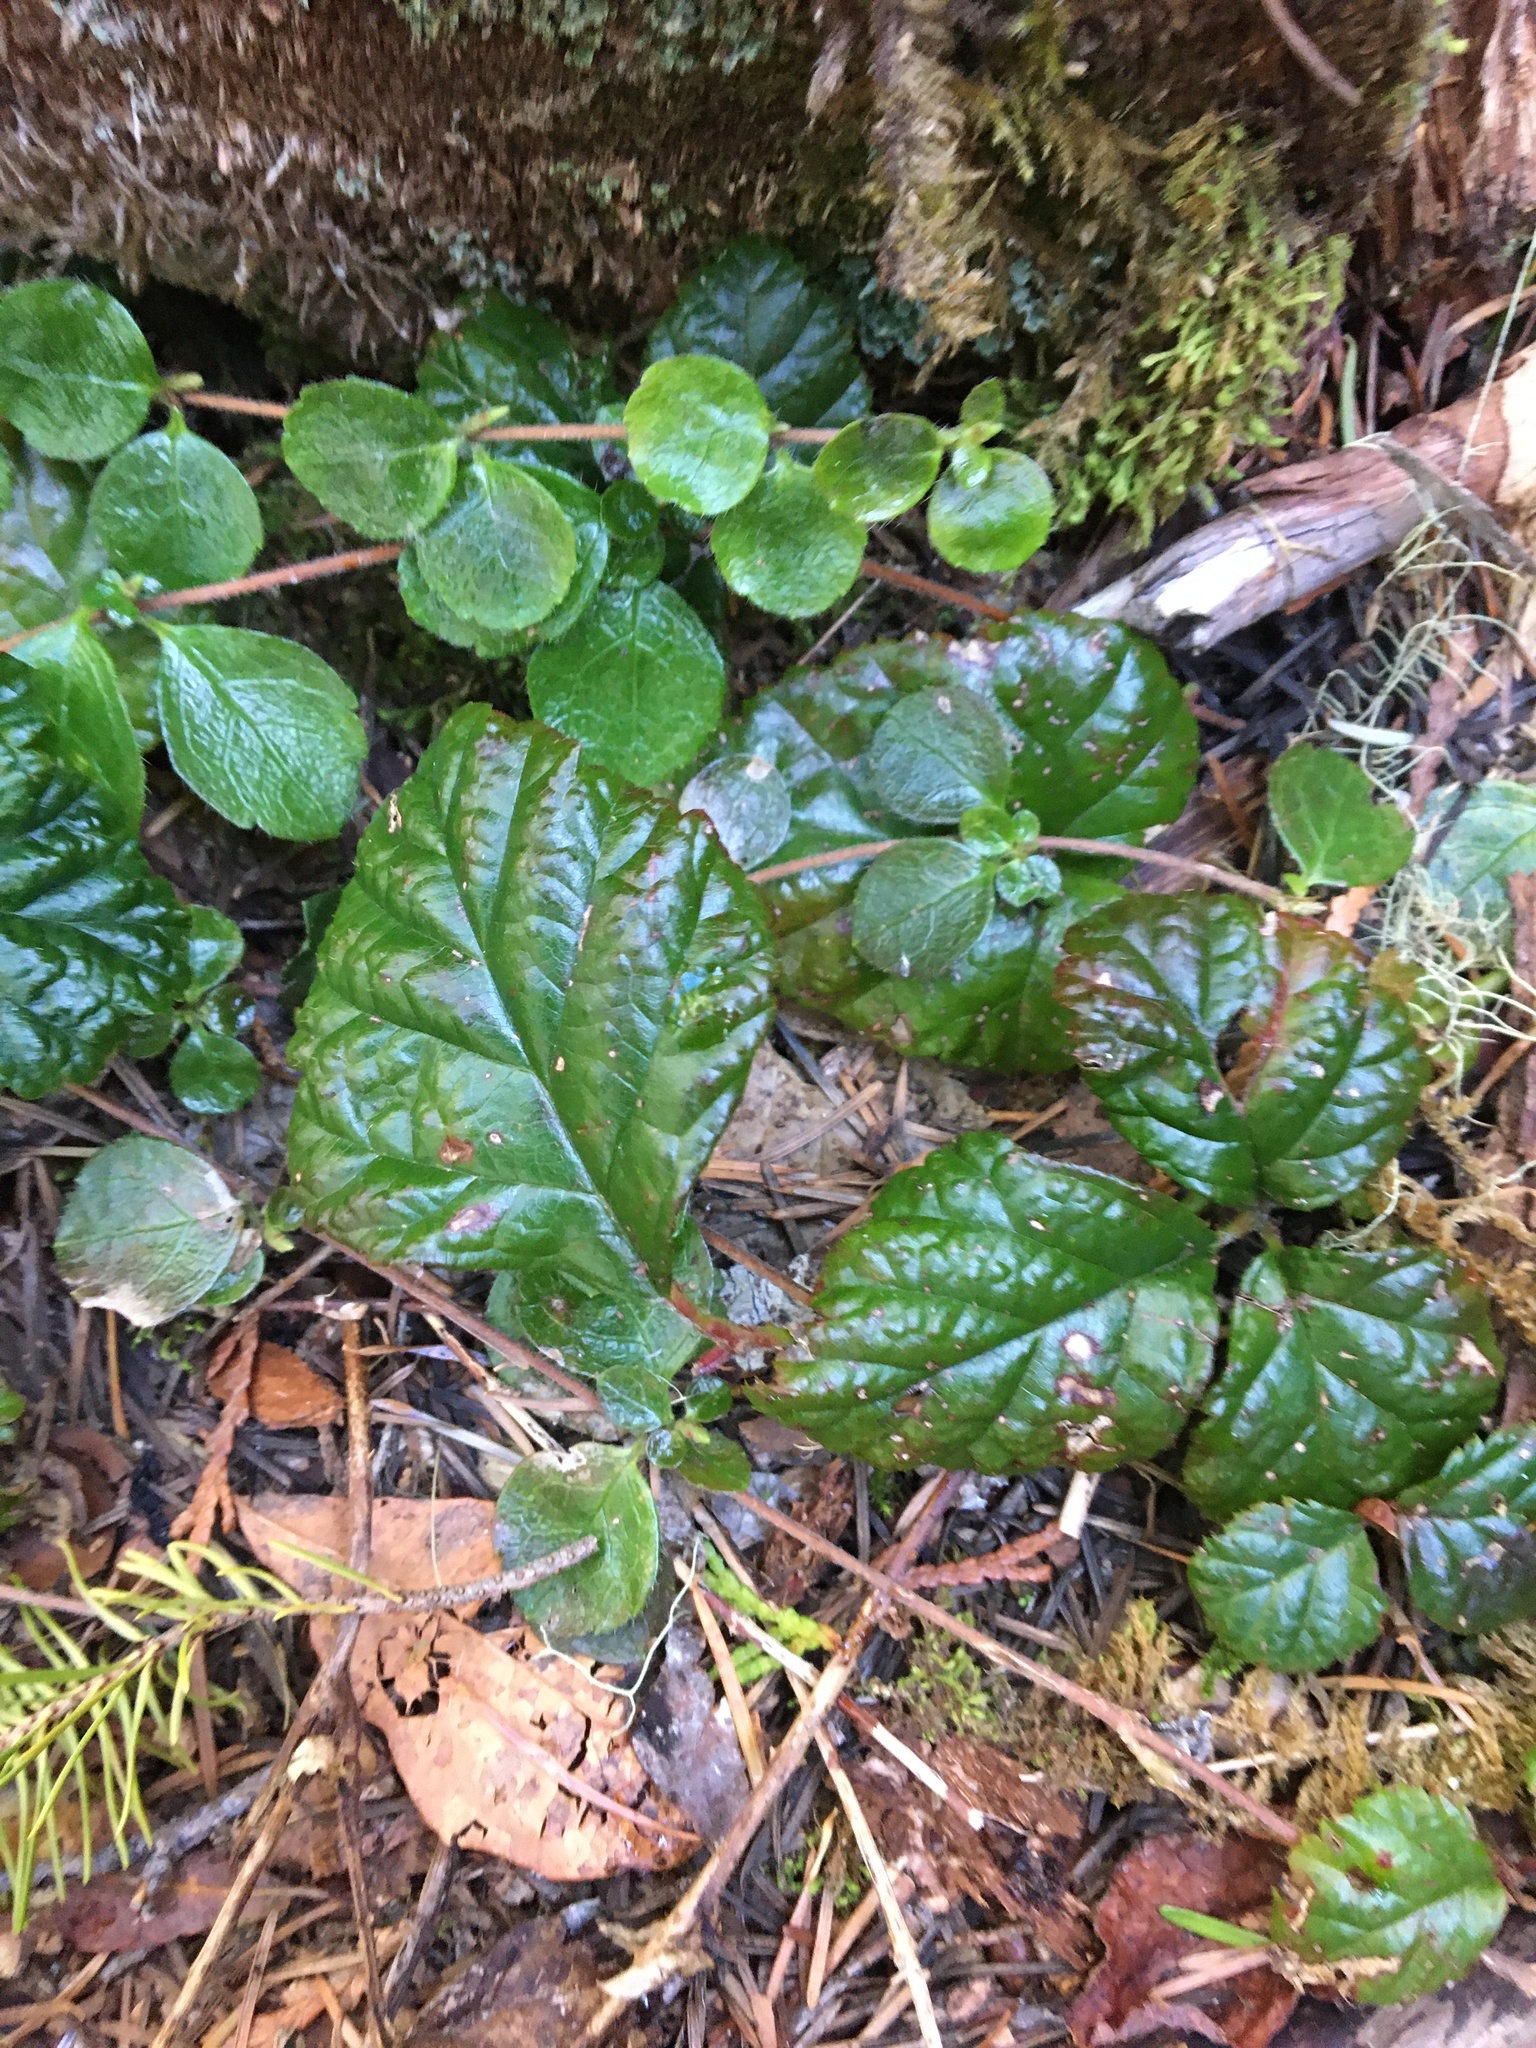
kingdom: Plantae
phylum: Tracheophyta
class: Magnoliopsida
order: Rosales
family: Rosaceae
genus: Rubus
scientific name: Rubus nivalis
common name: Dwarf snow bramble
